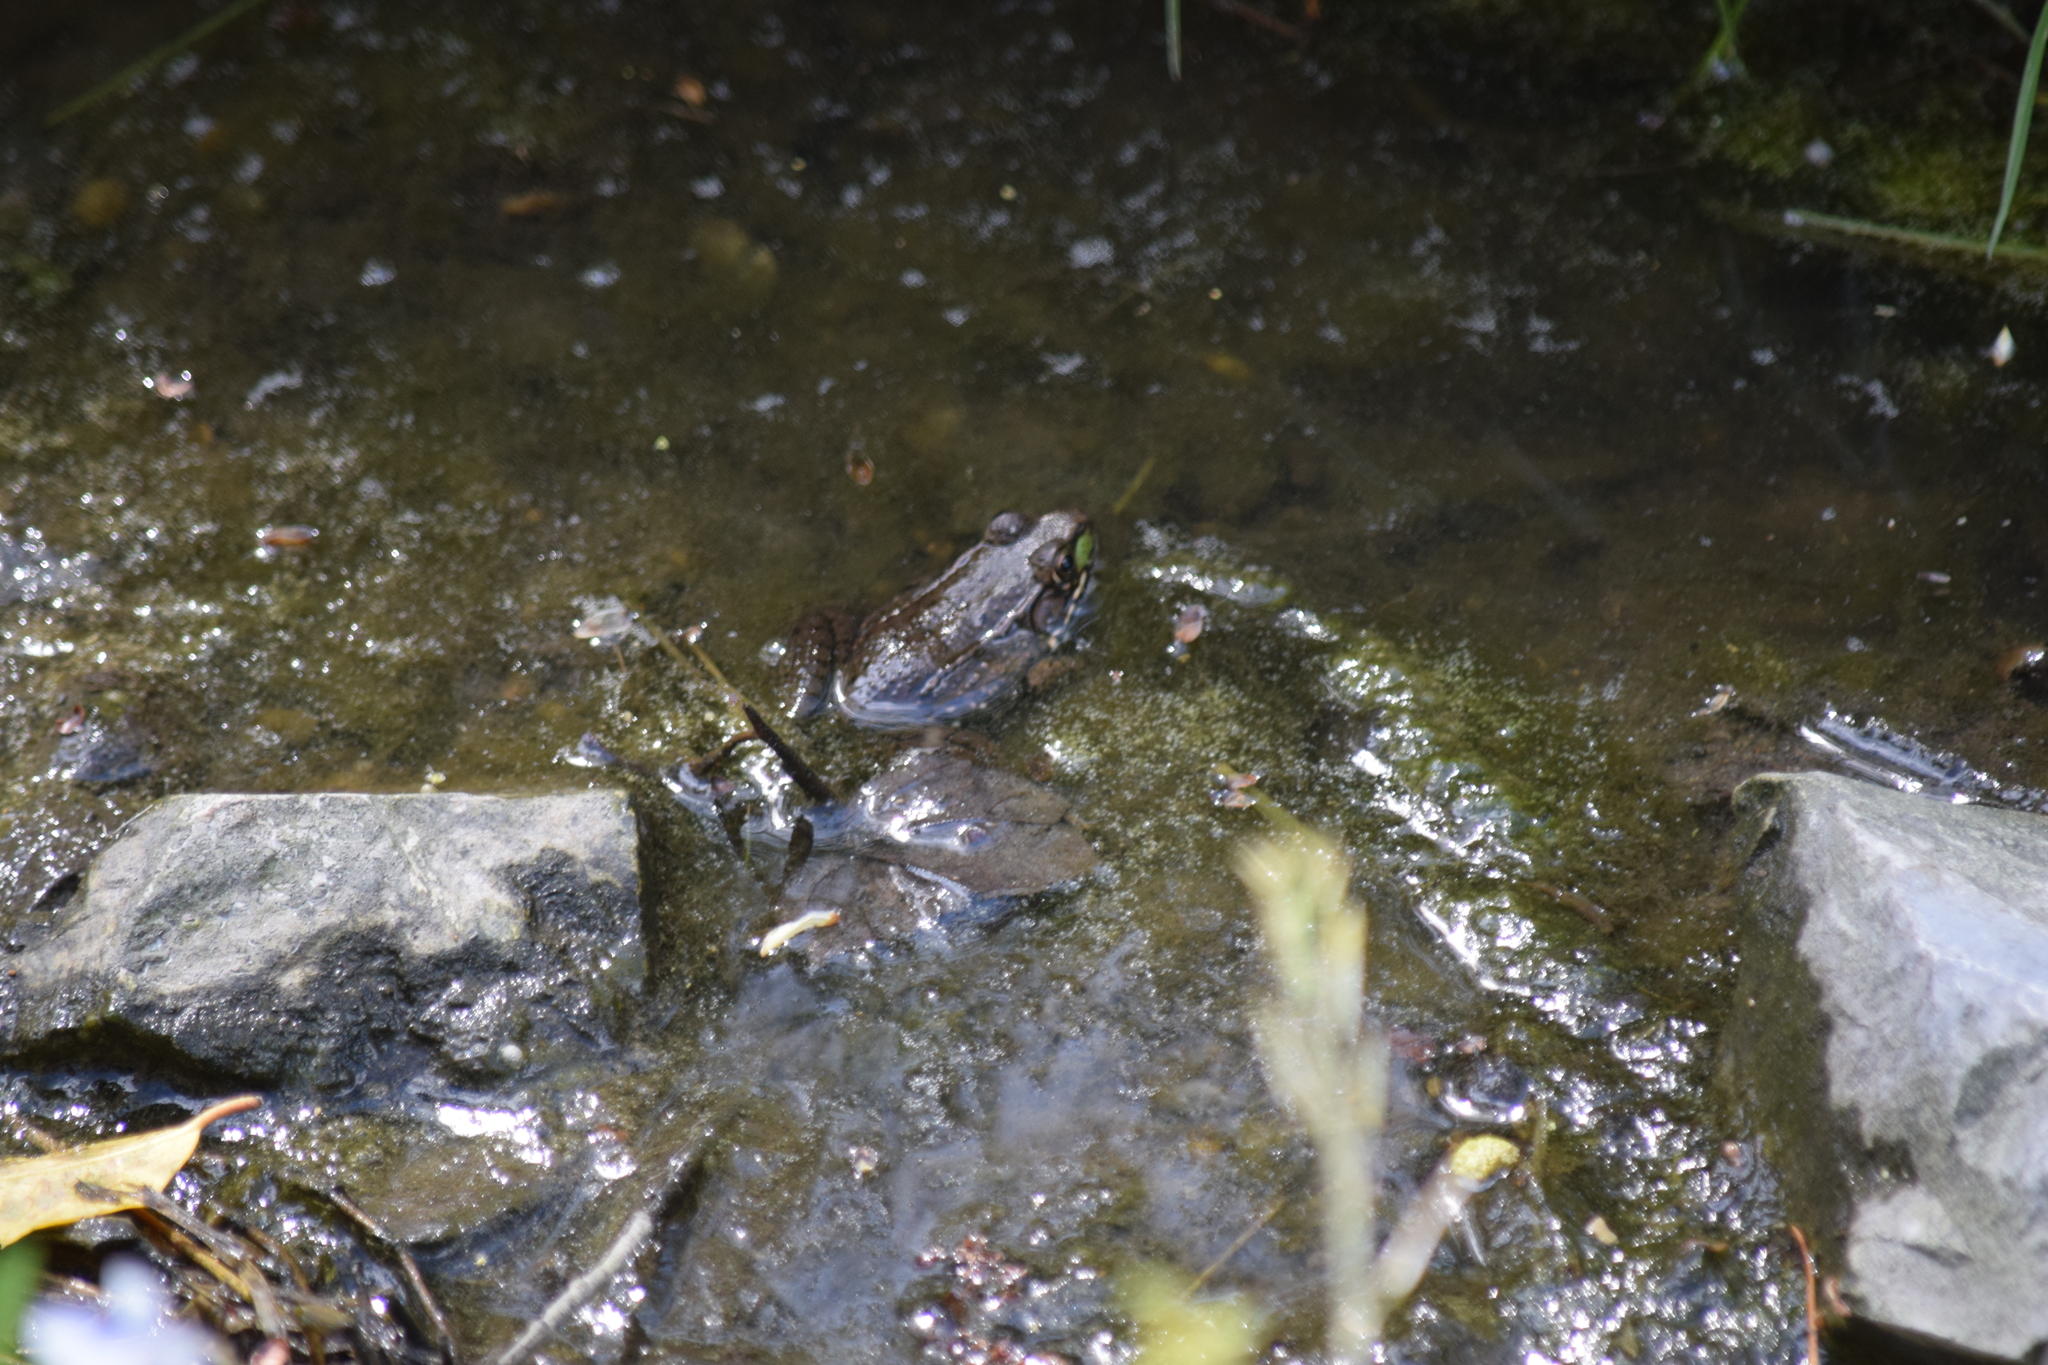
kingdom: Animalia
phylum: Chordata
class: Amphibia
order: Anura
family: Ranidae
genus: Lithobates
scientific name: Lithobates clamitans
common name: Green frog
